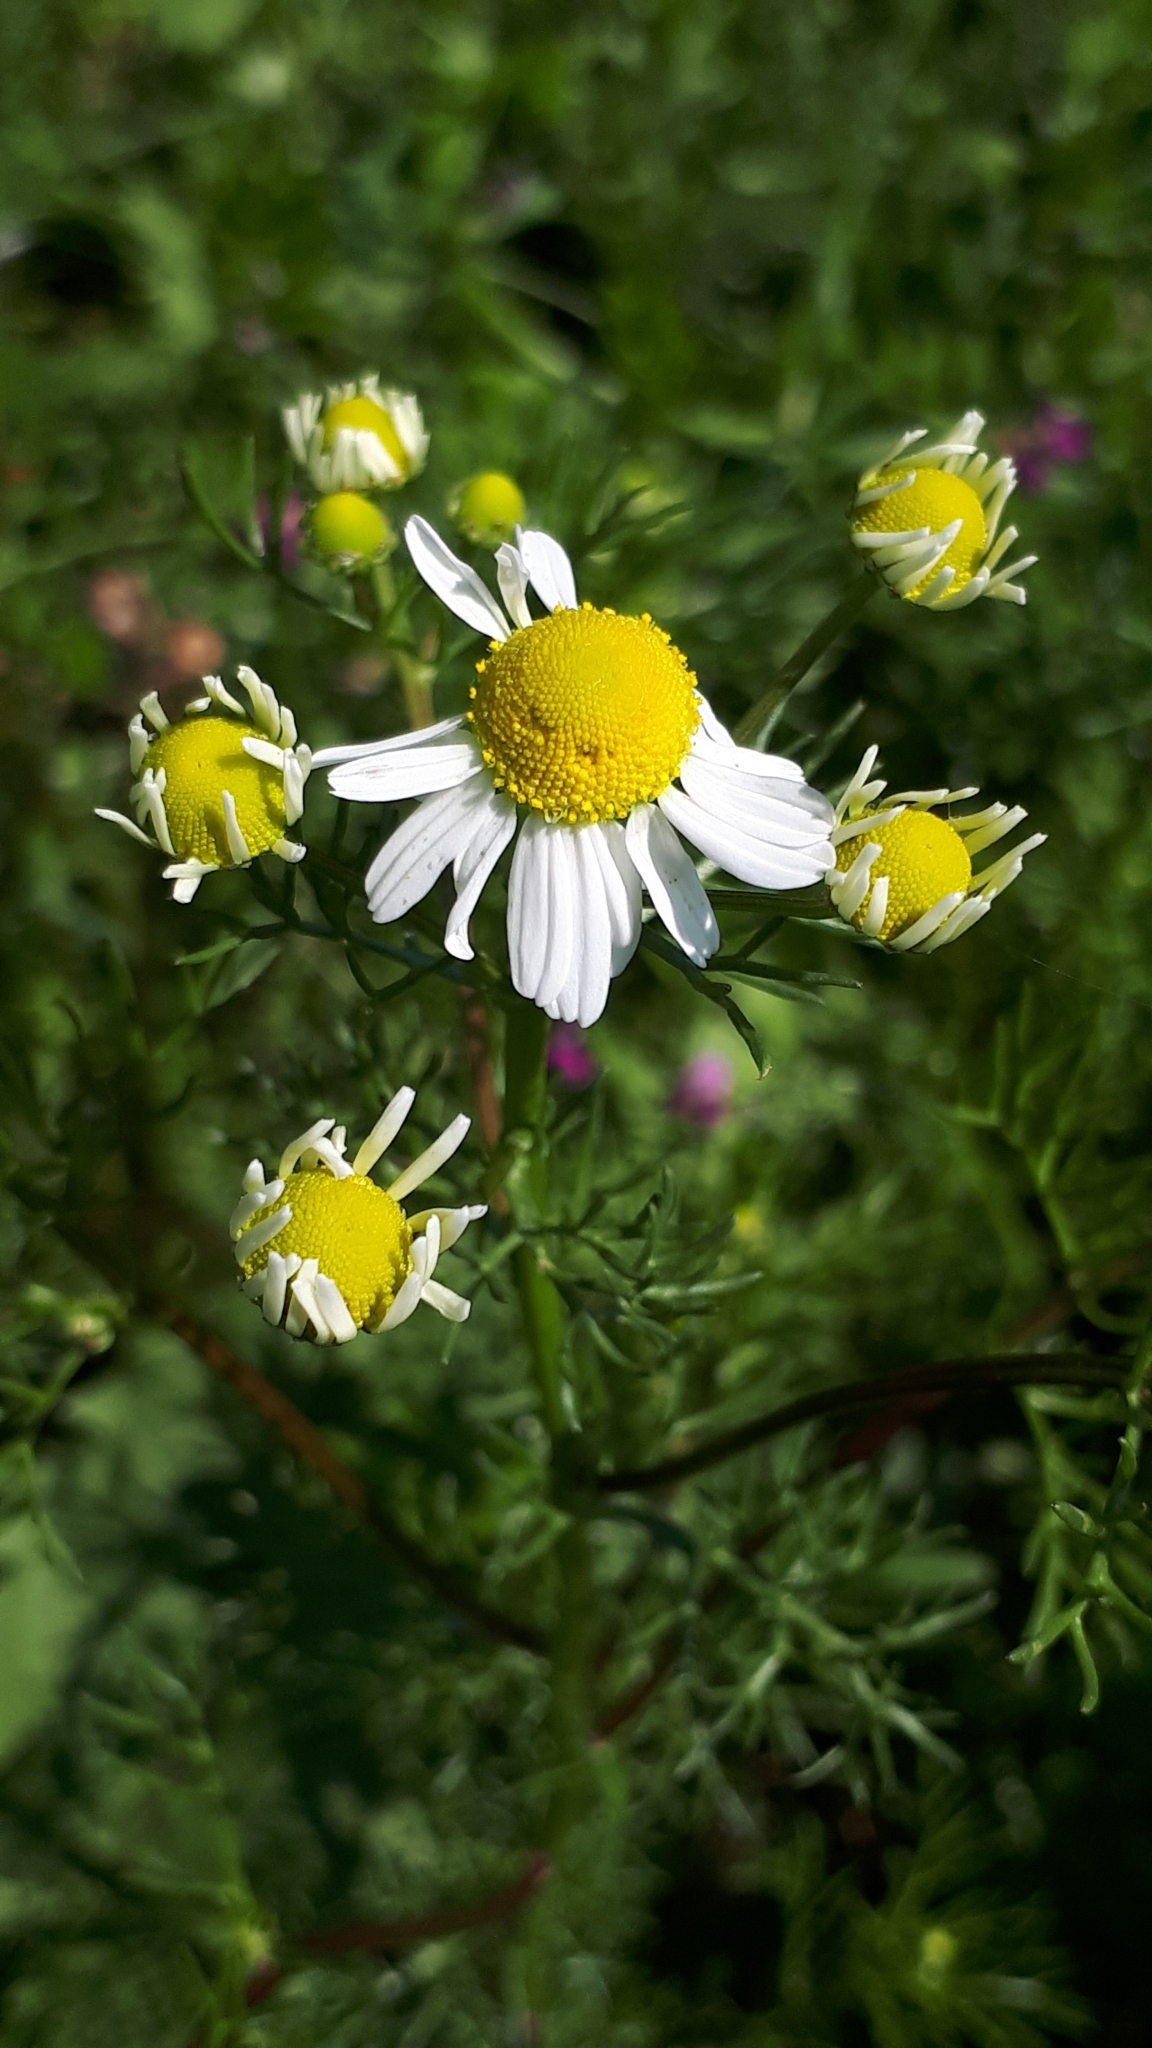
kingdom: Plantae
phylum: Tracheophyta
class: Magnoliopsida
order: Asterales
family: Asteraceae
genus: Matricaria
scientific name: Matricaria chamomilla
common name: Scented mayweed
